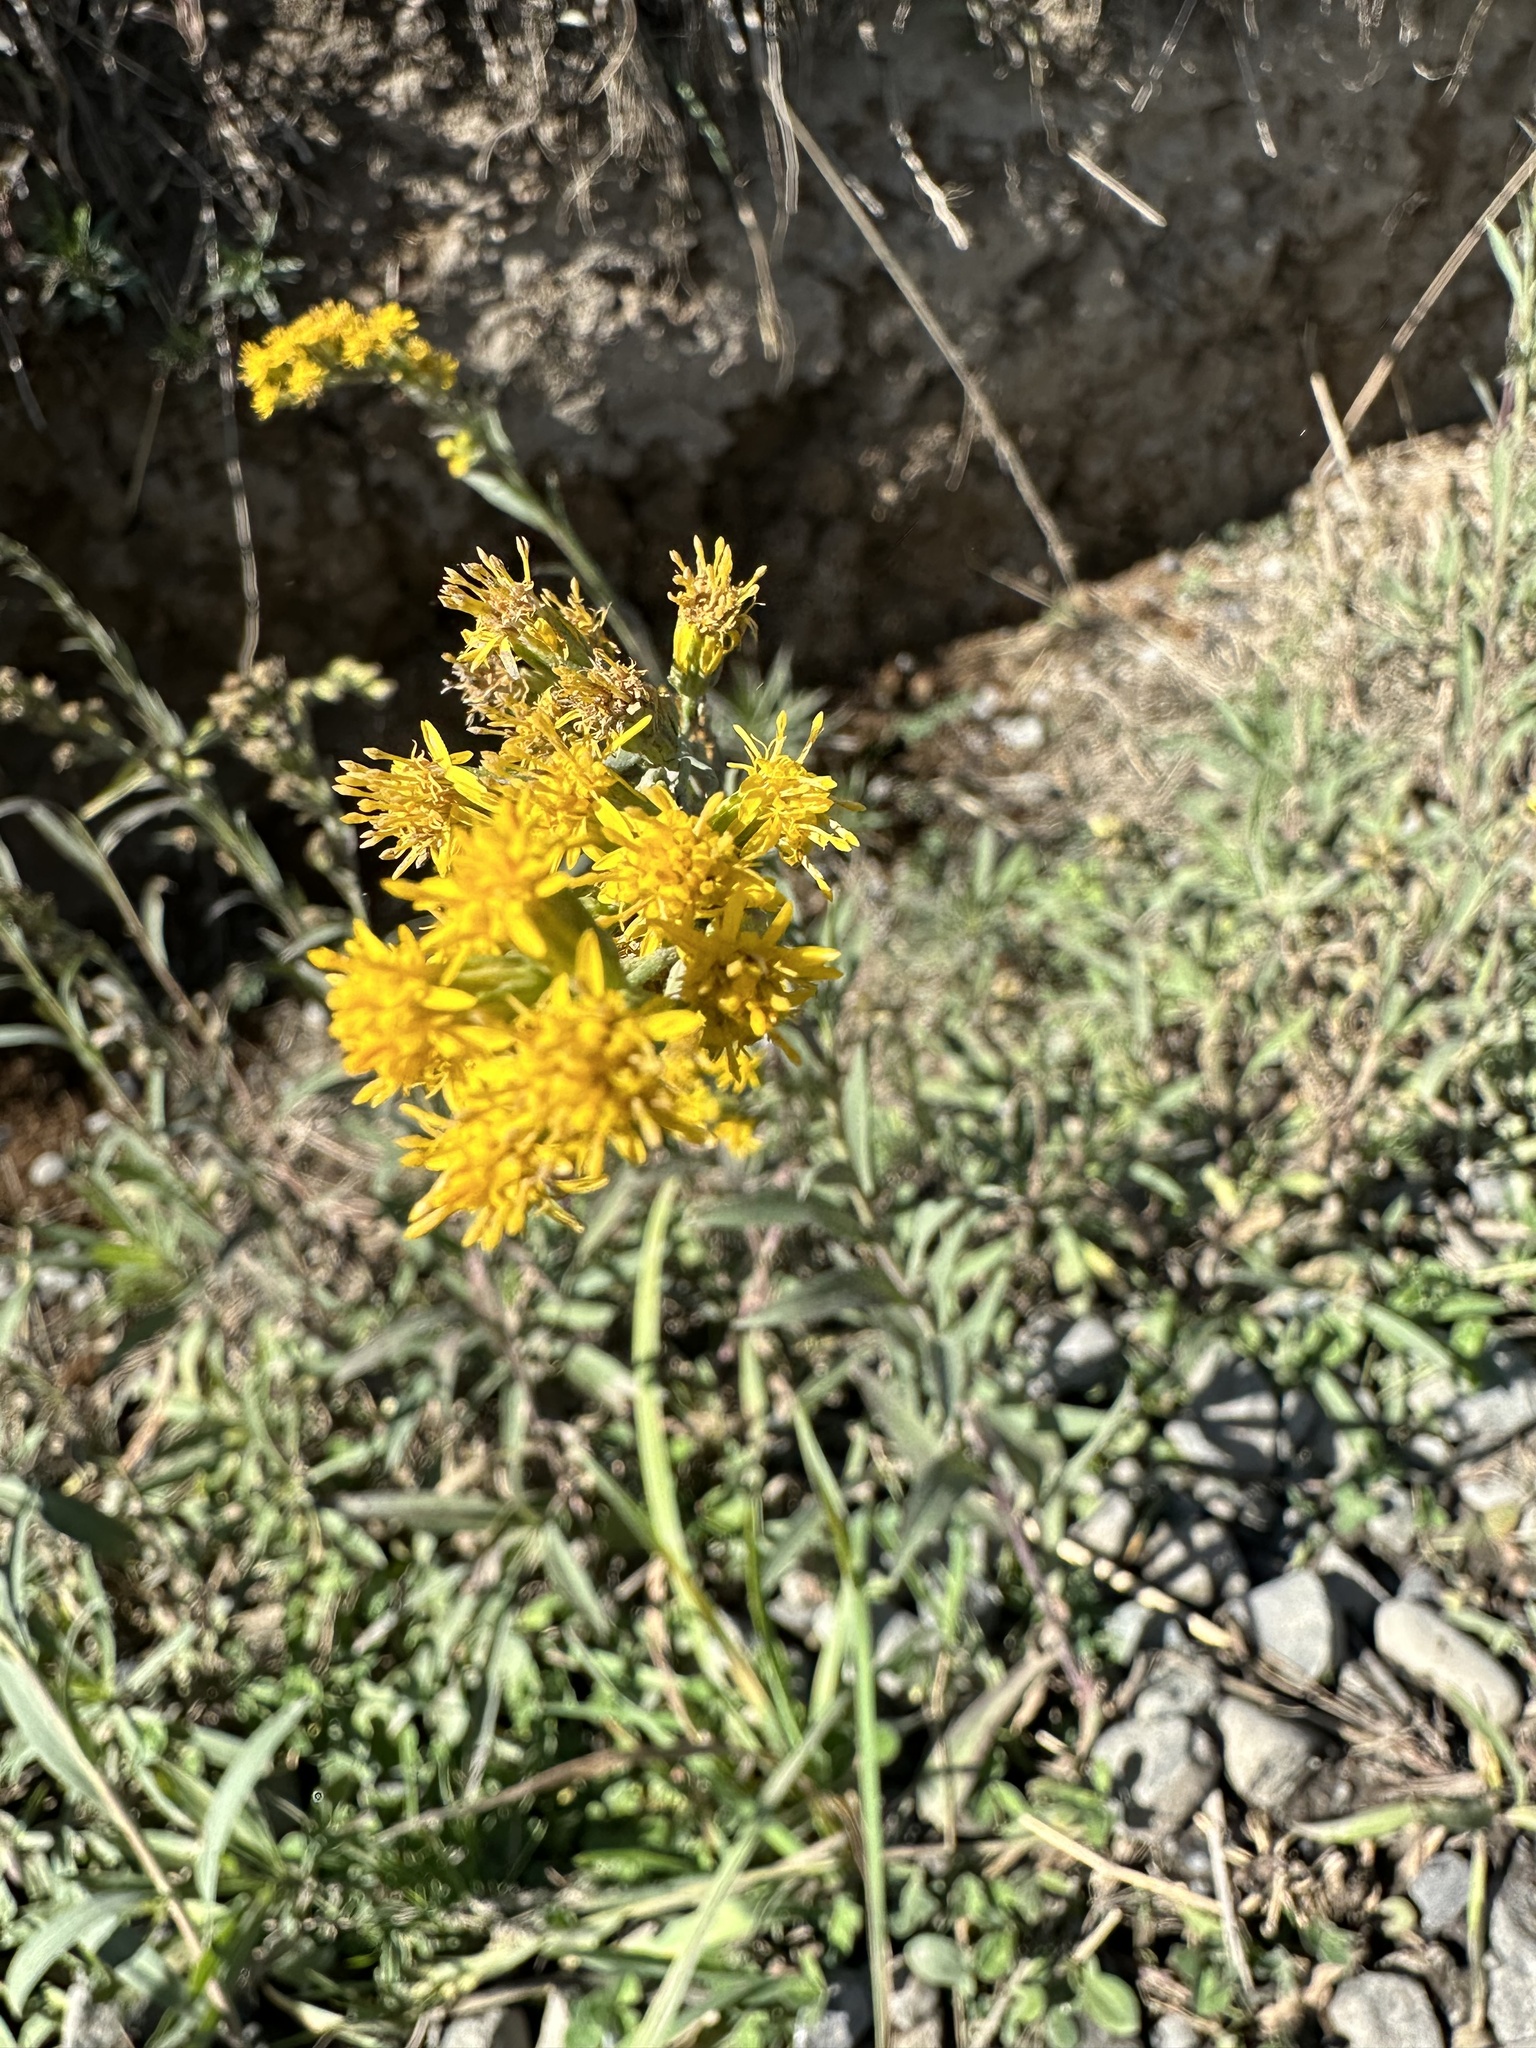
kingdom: Plantae
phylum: Tracheophyta
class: Magnoliopsida
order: Asterales
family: Asteraceae
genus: Solidago
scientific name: Solidago chilensis
